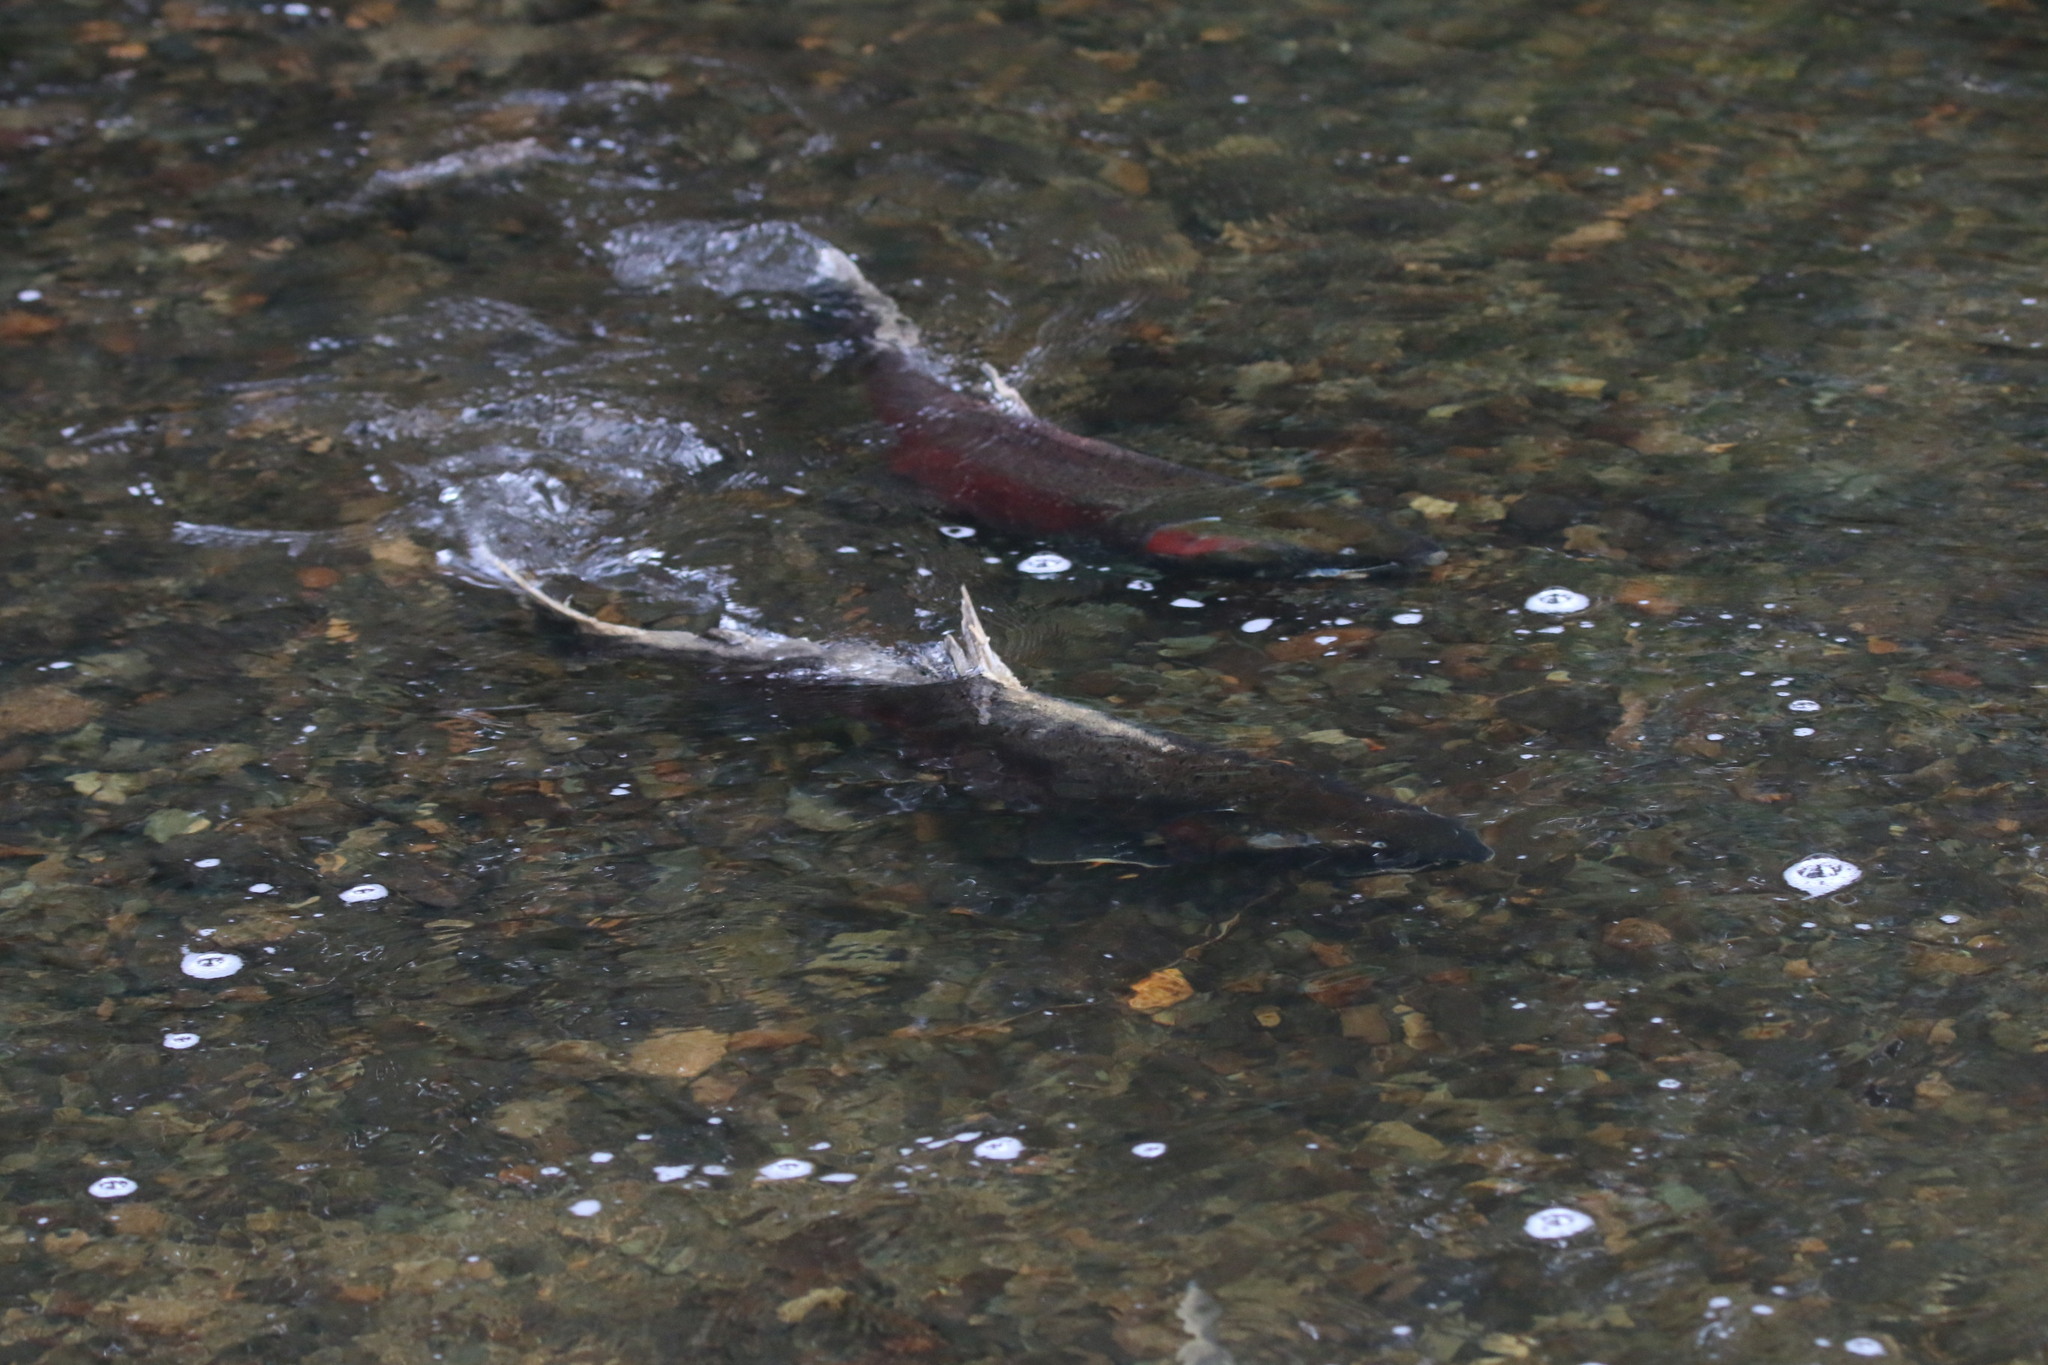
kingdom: Animalia
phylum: Chordata
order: Salmoniformes
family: Salmonidae
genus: Oncorhynchus
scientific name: Oncorhynchus kisutch
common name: Coho salmon
